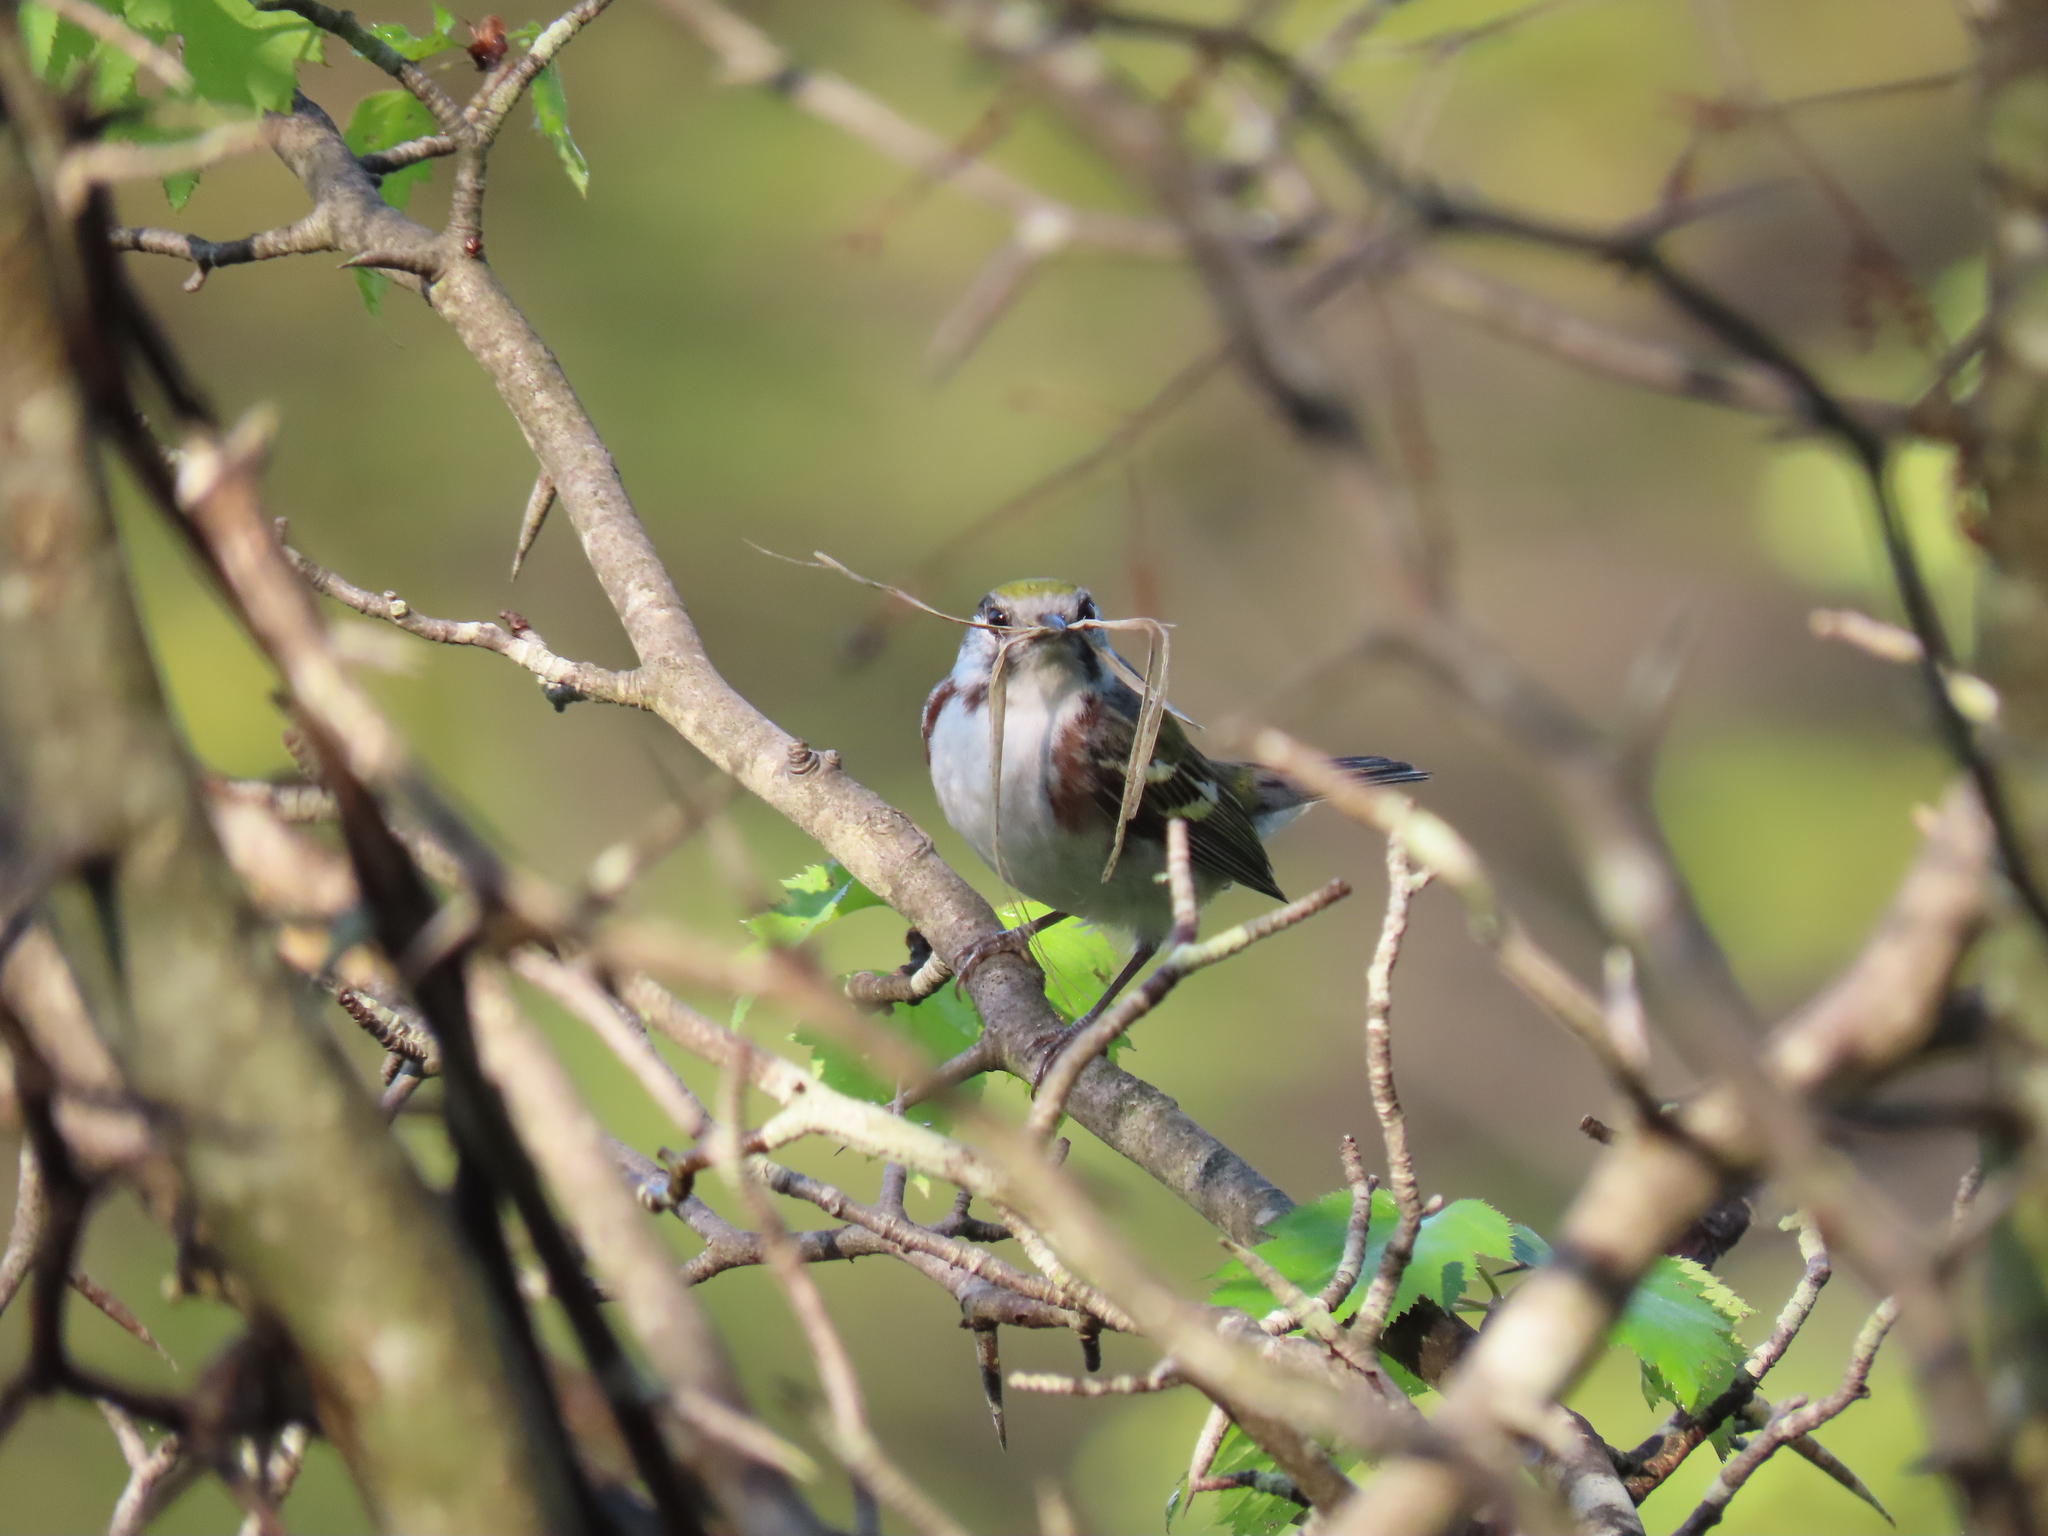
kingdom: Animalia
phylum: Chordata
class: Aves
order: Passeriformes
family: Parulidae
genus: Setophaga
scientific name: Setophaga pensylvanica
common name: Chestnut-sided warbler
